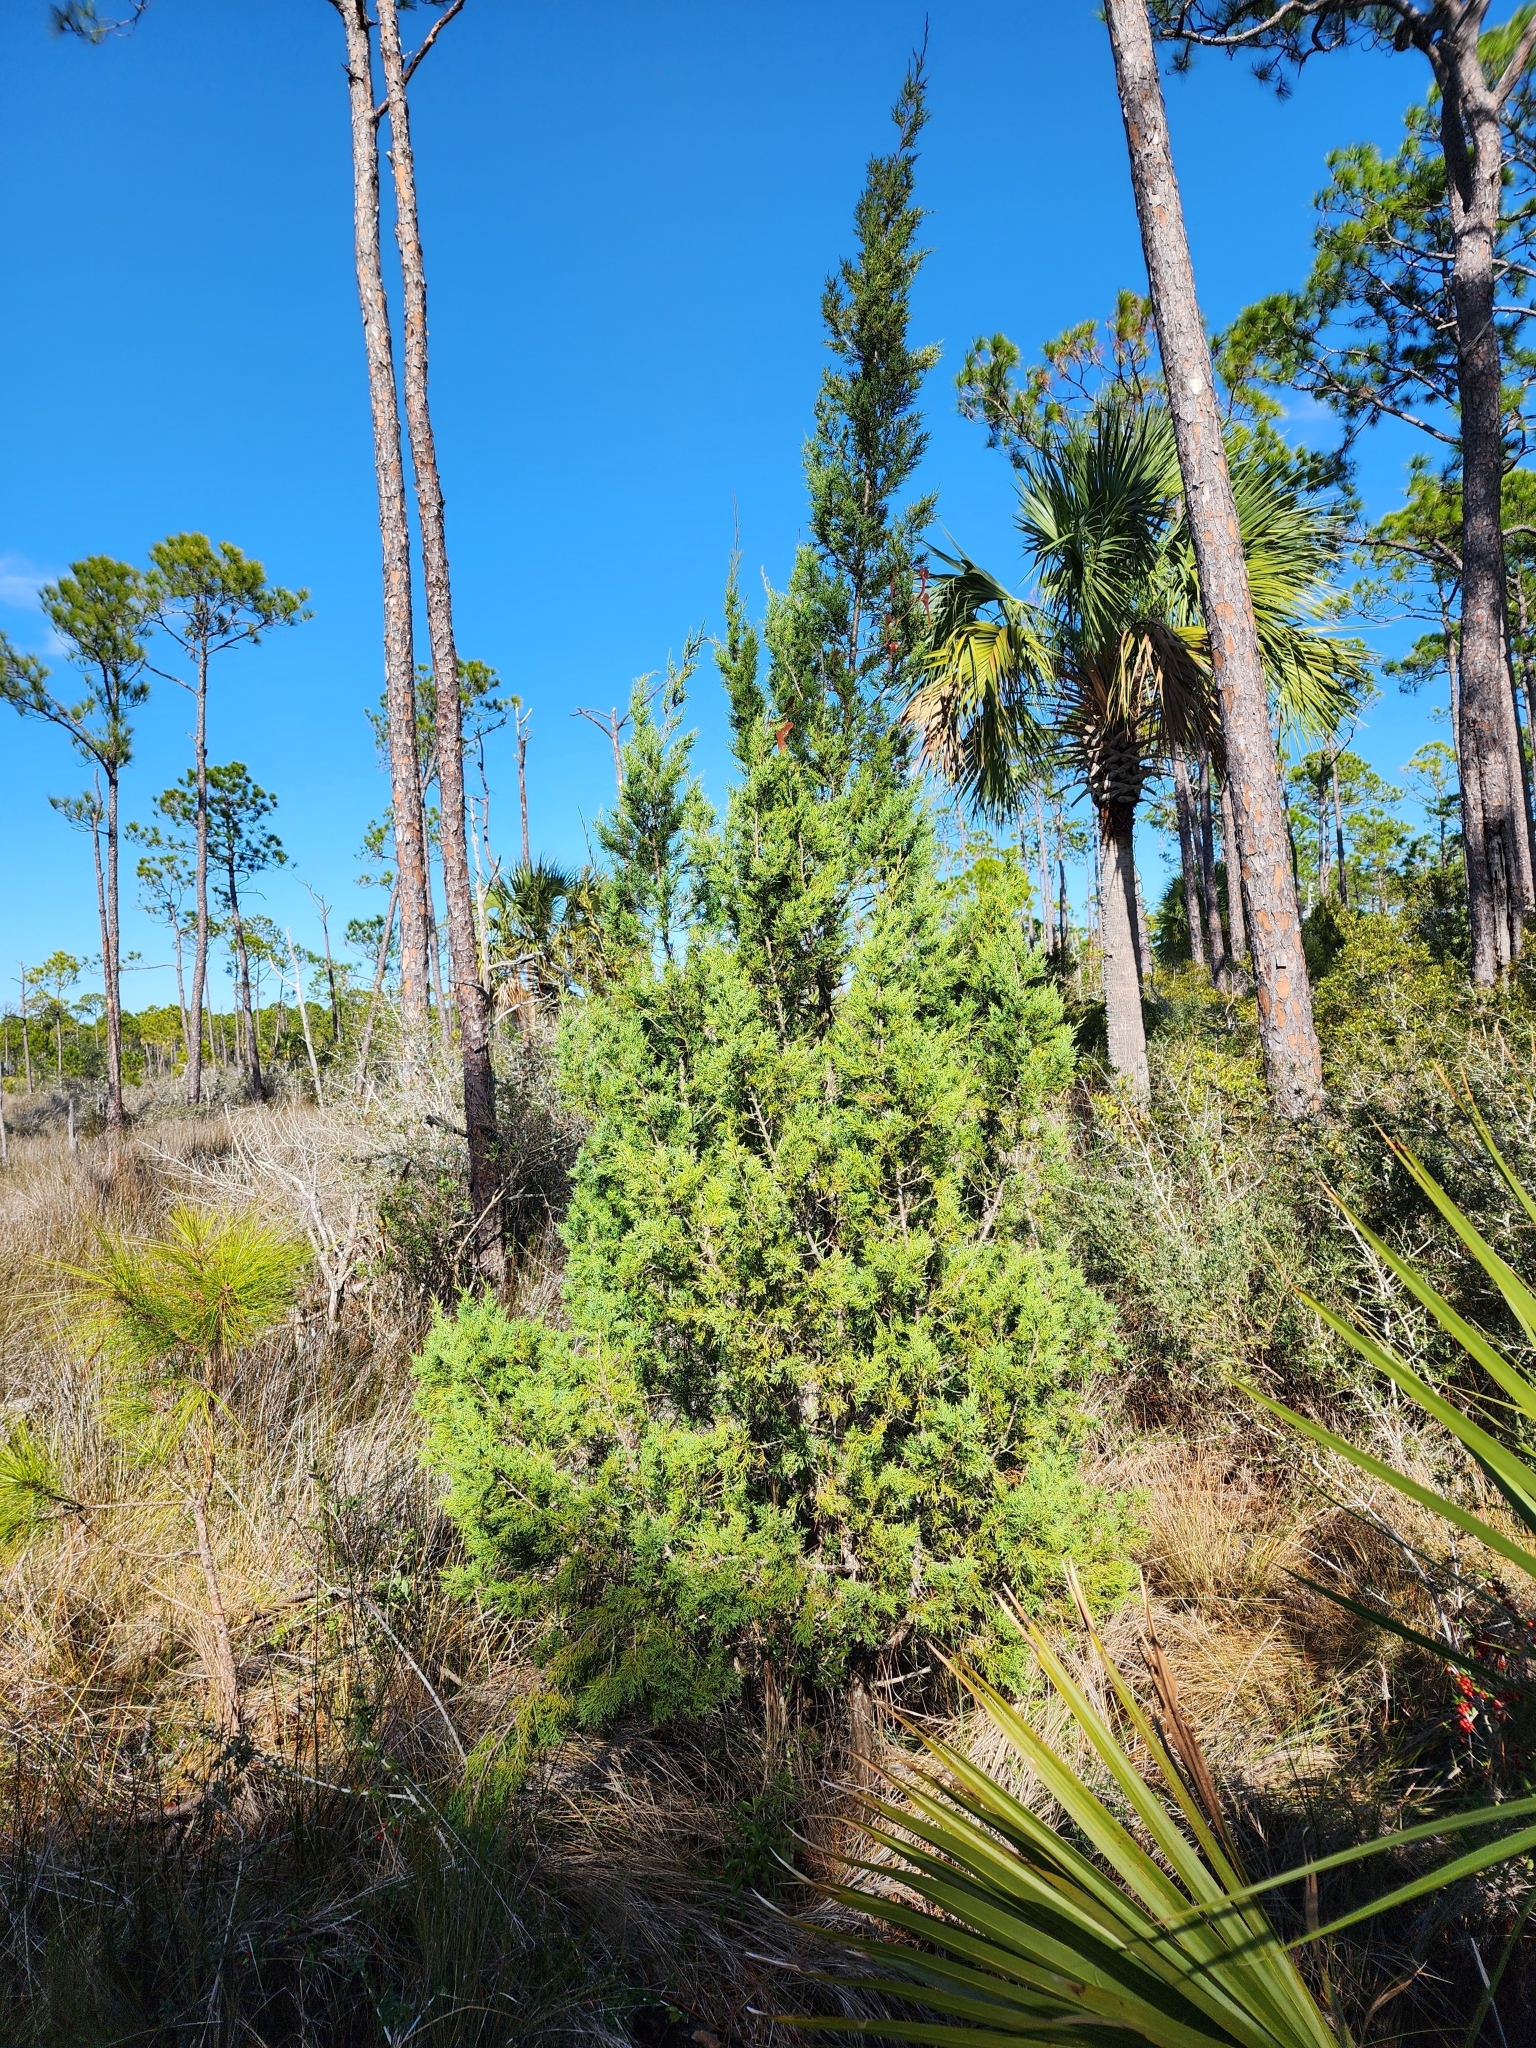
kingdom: Plantae
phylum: Tracheophyta
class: Pinopsida
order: Pinales
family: Cupressaceae
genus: Juniperus
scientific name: Juniperus virginiana
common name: Red juniper
